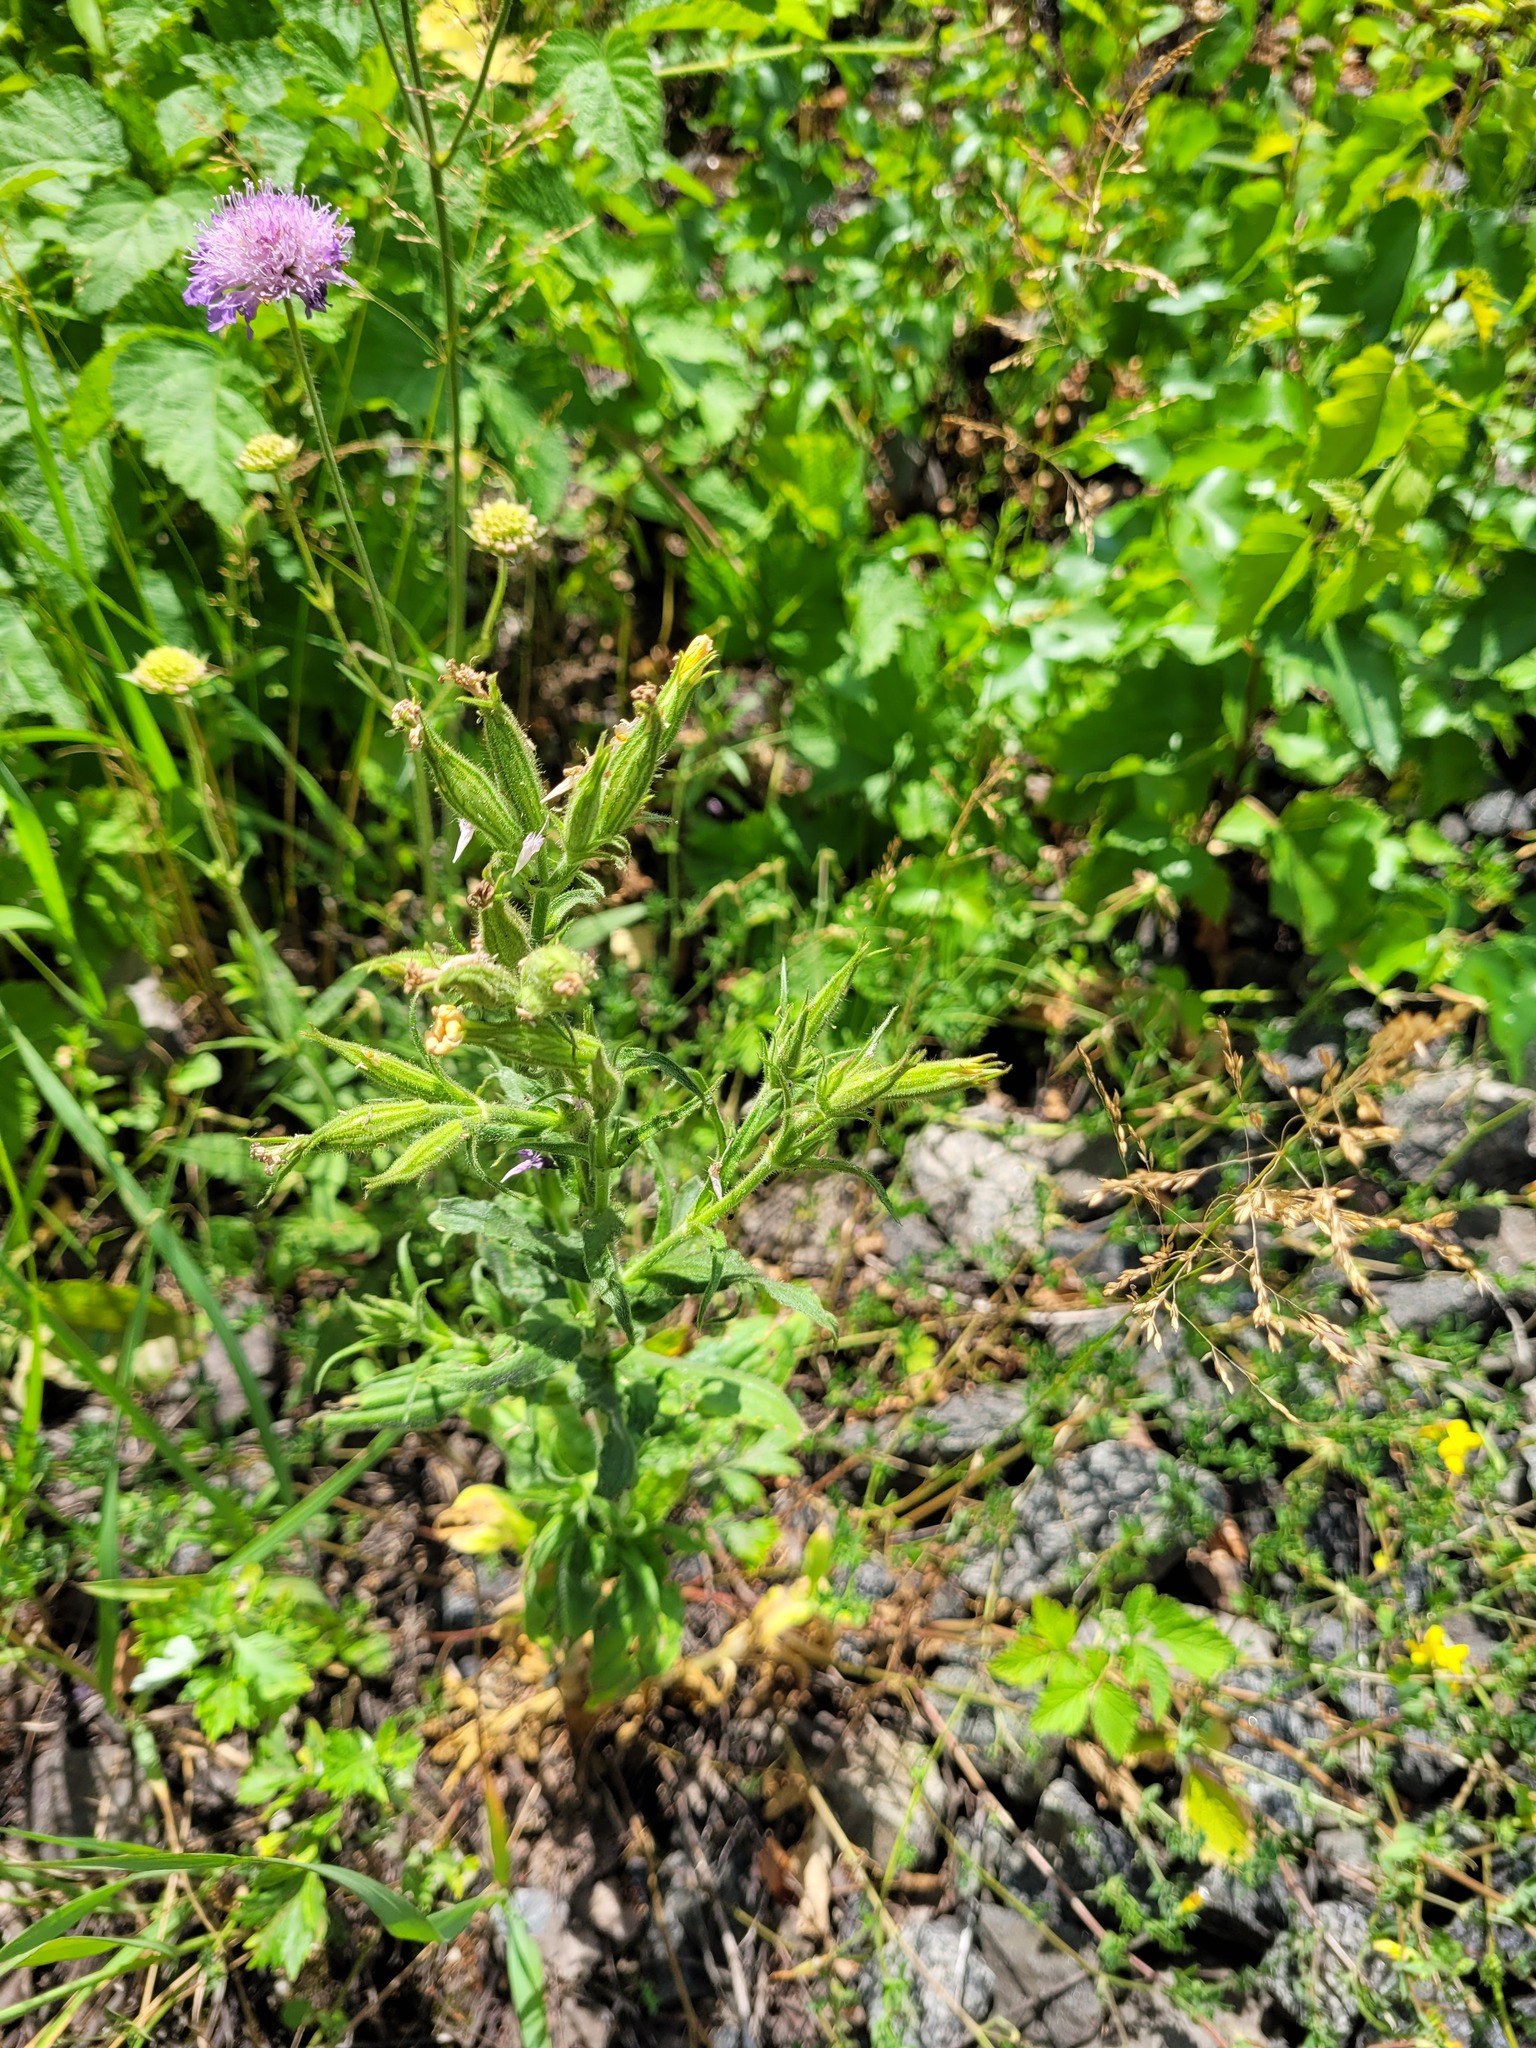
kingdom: Plantae
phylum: Tracheophyta
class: Magnoliopsida
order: Caryophyllales
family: Caryophyllaceae
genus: Silene
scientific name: Silene noctiflora
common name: Night-flowering catchfly
